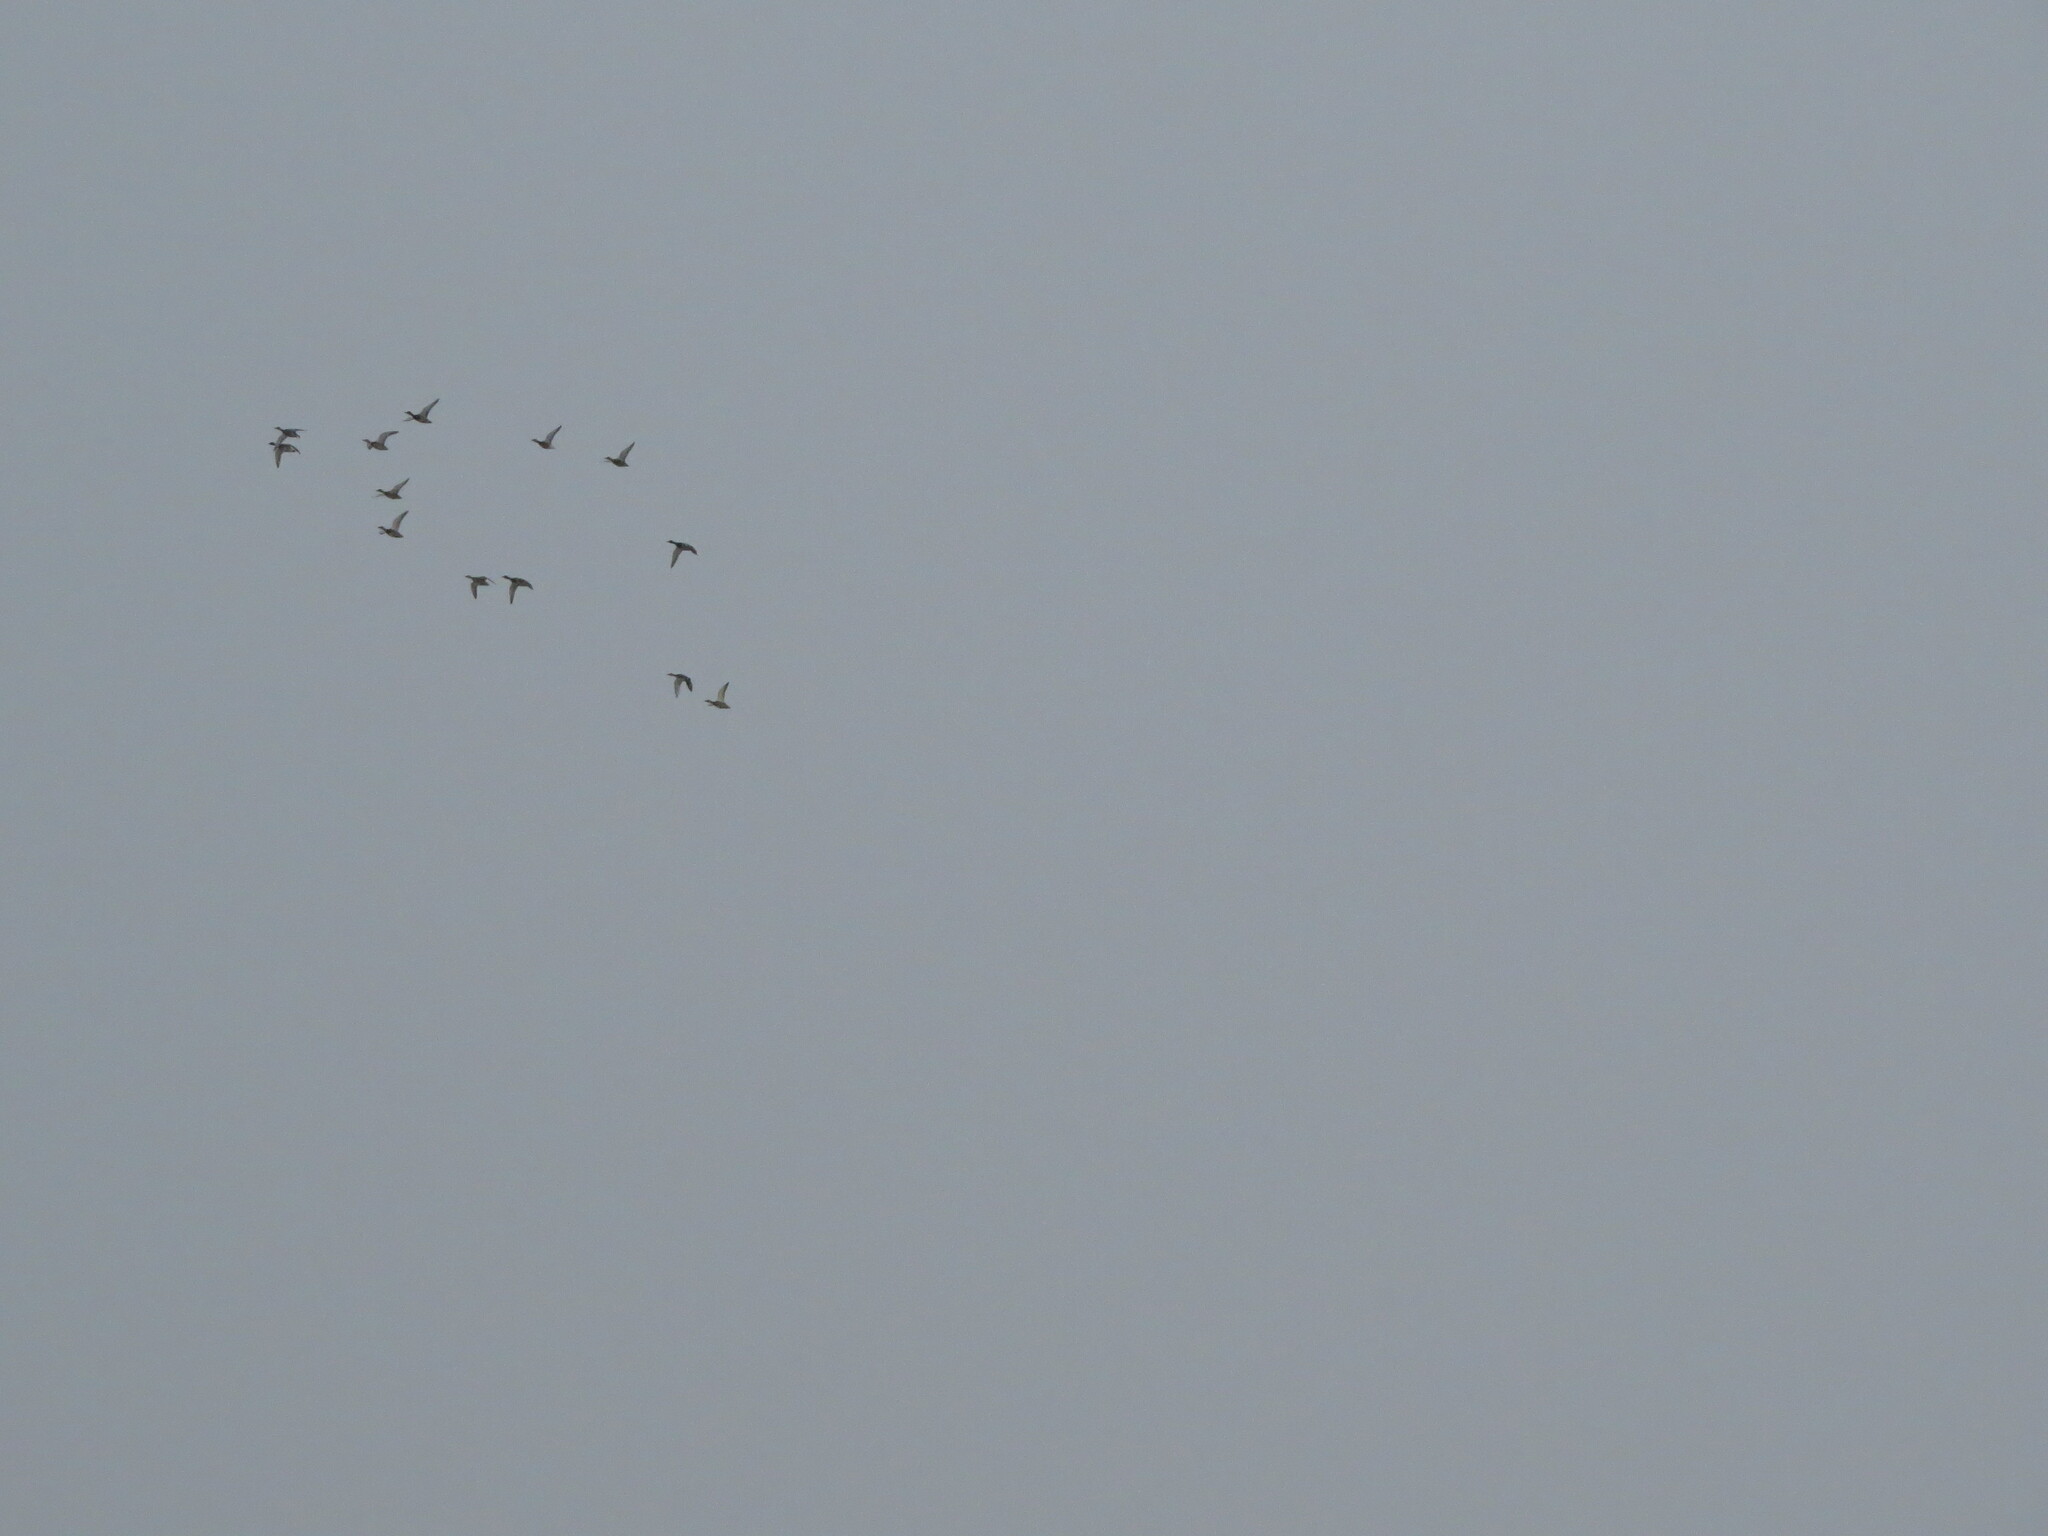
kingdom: Animalia
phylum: Chordata
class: Aves
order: Anseriformes
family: Anatidae
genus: Anas
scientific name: Anas platyrhynchos
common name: Mallard
